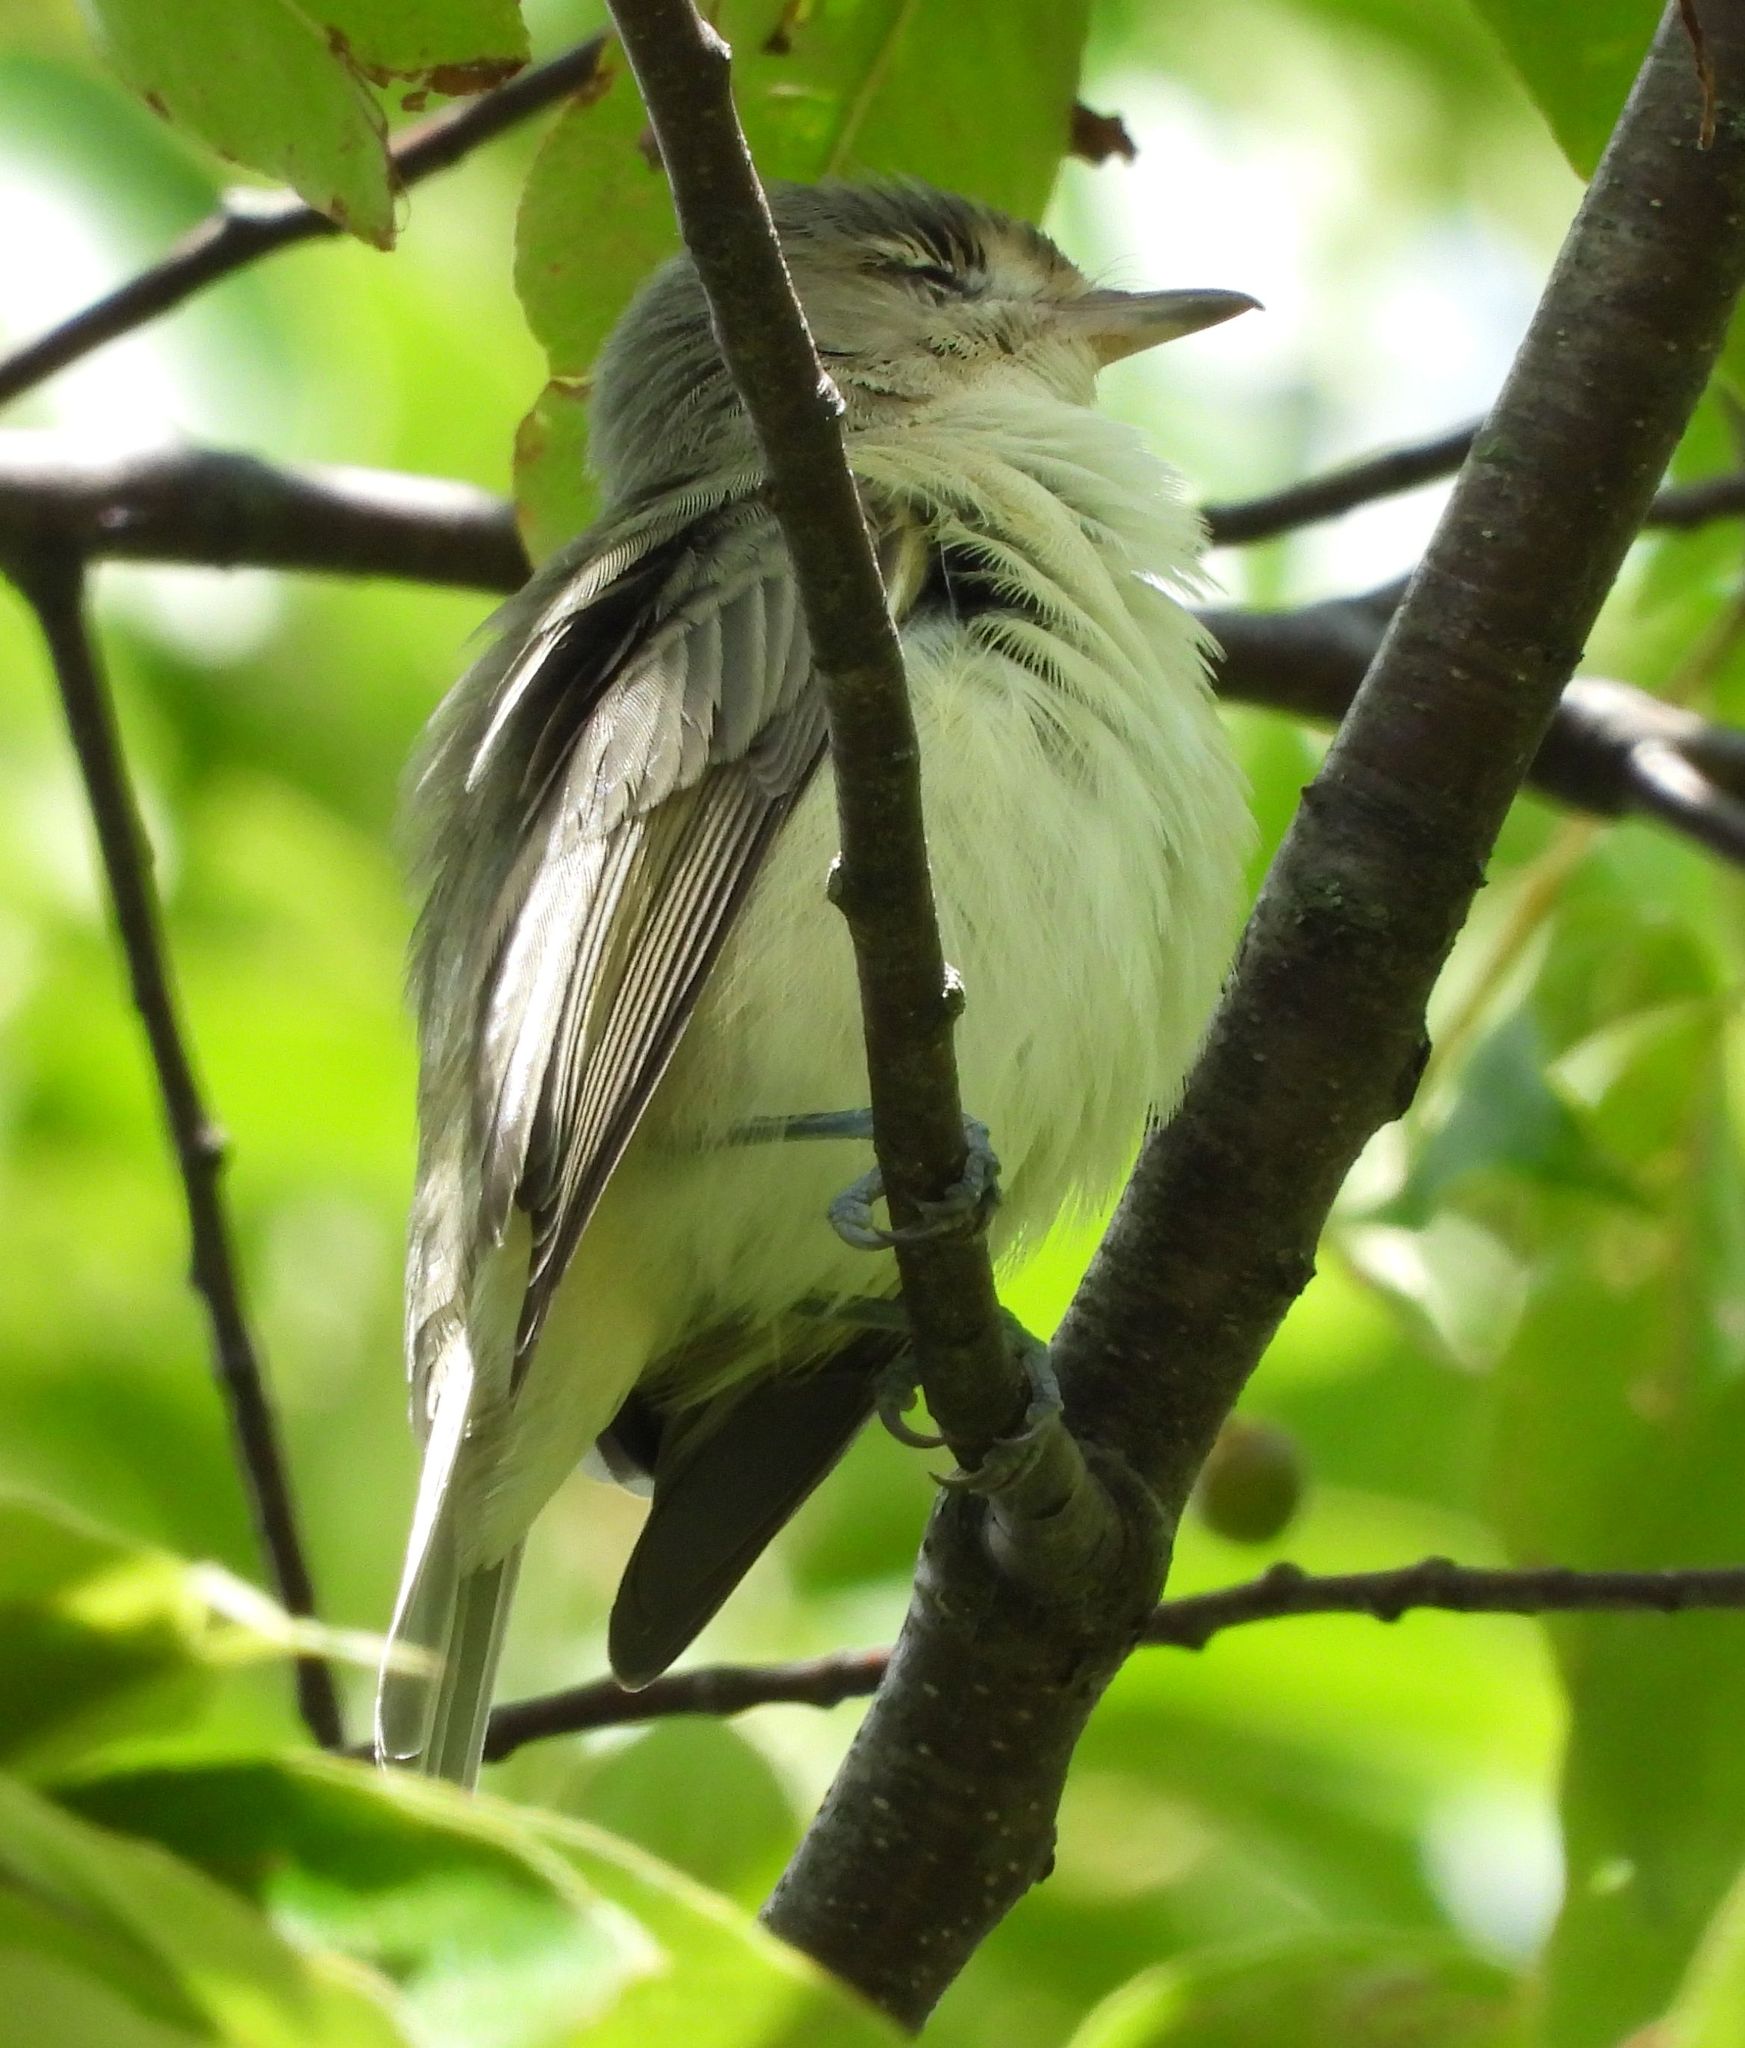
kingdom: Animalia
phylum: Chordata
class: Aves
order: Passeriformes
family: Vireonidae
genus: Vireo
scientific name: Vireo gilvus
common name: Warbling vireo
